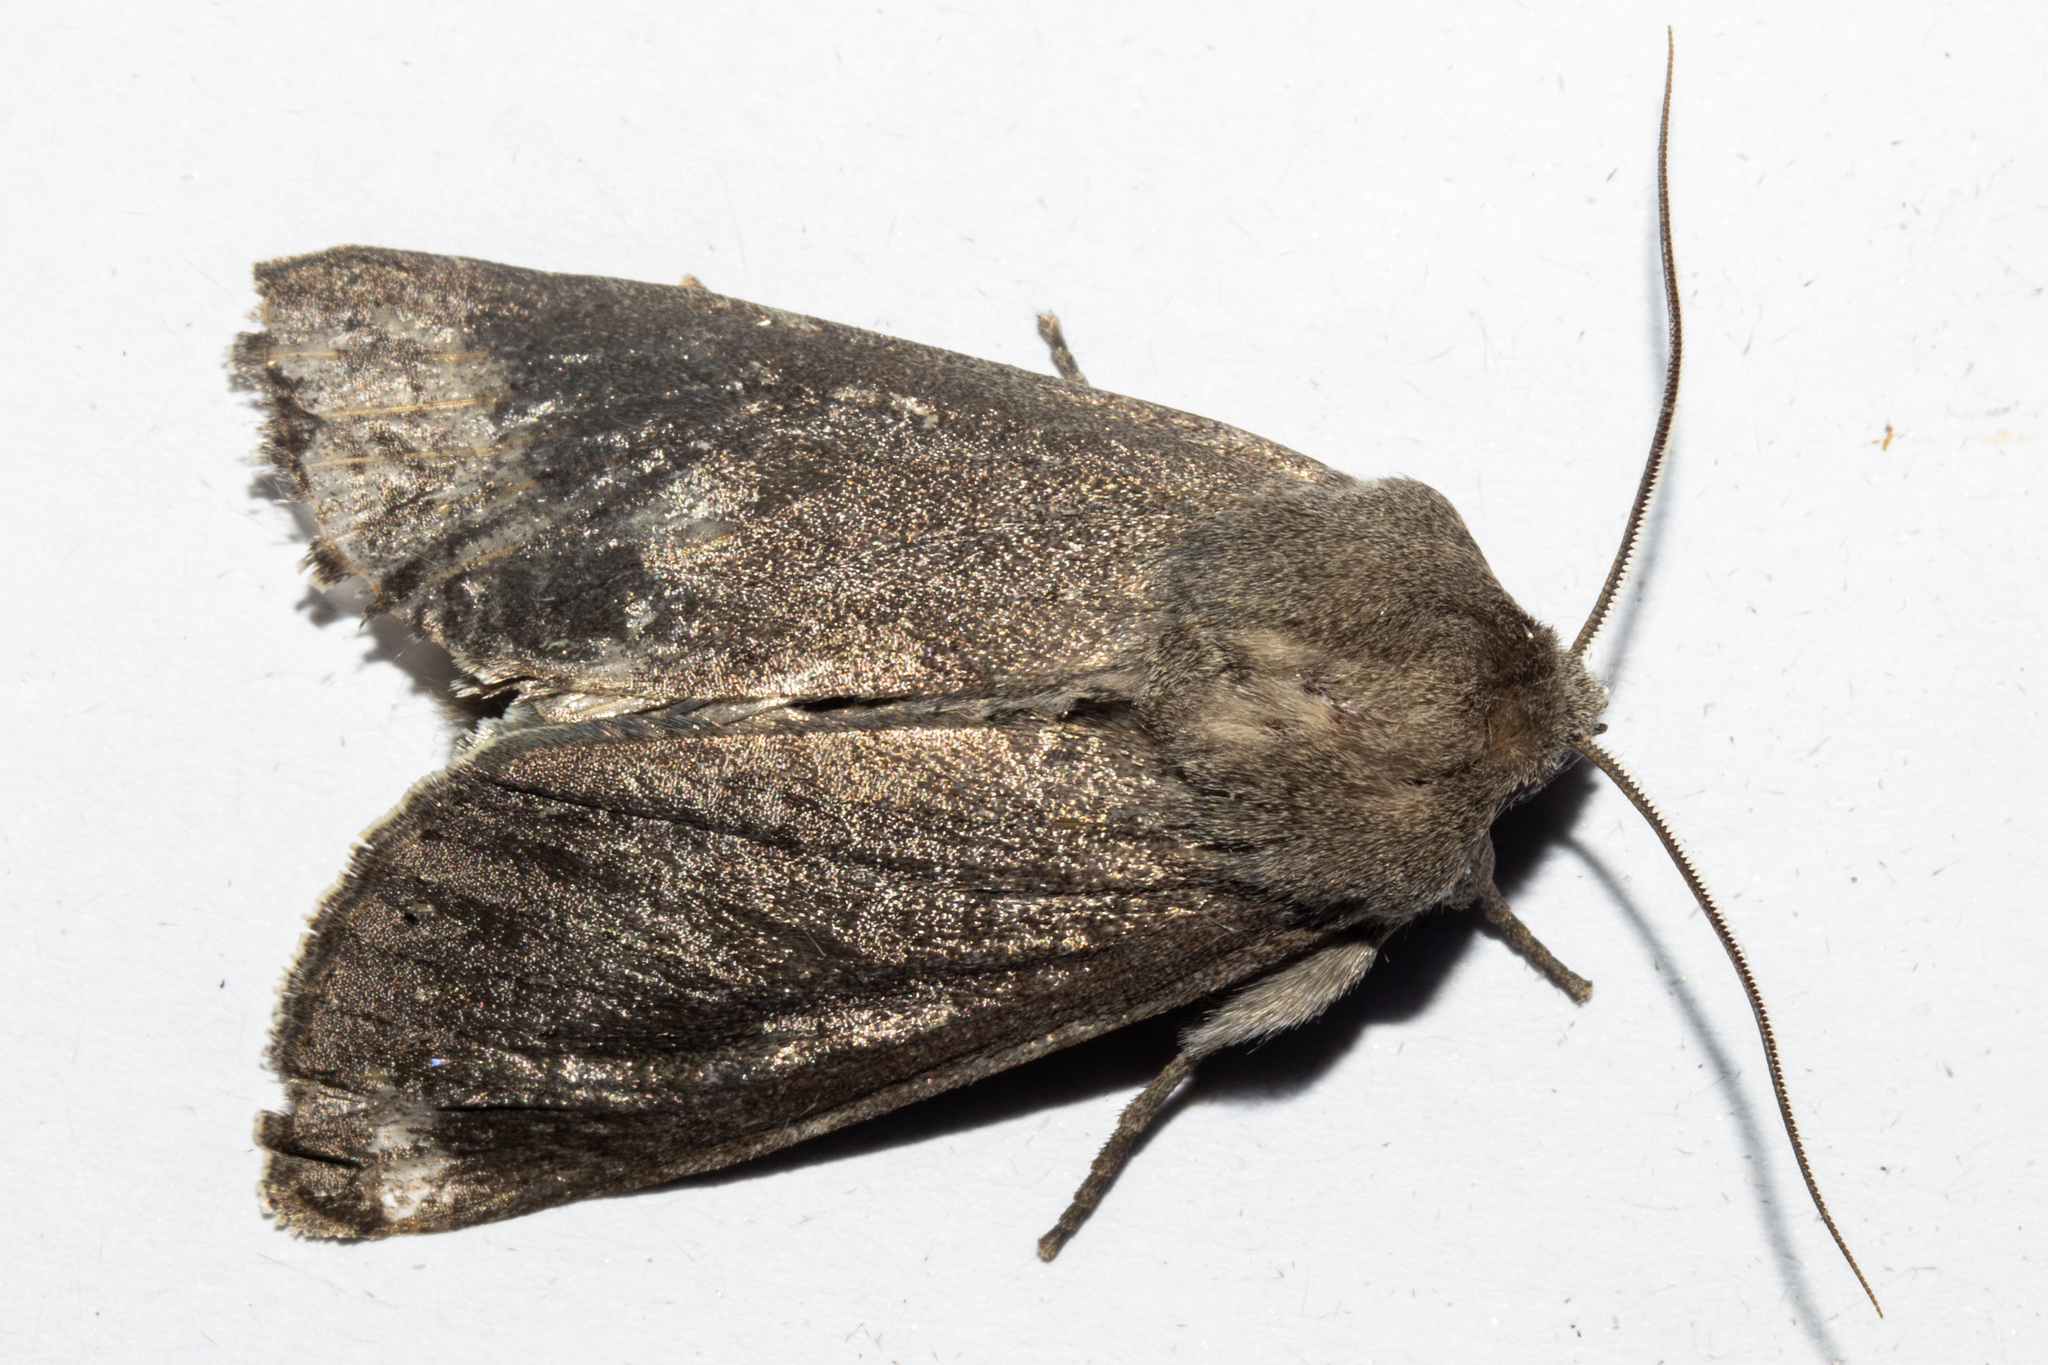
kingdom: Animalia
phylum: Arthropoda
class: Insecta
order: Lepidoptera
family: Noctuidae
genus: Ichneutica
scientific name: Ichneutica nullifera
